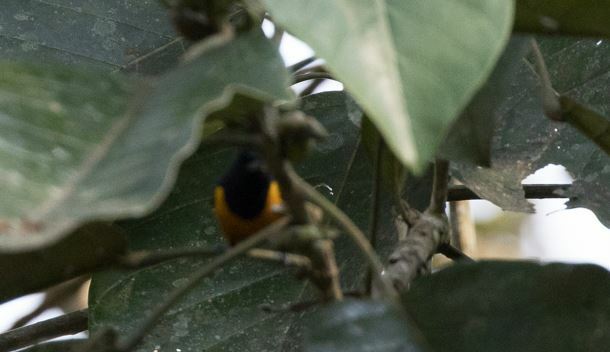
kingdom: Animalia
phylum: Chordata
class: Aves
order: Passeriformes
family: Fringillidae
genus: Euphonia
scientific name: Euphonia rufiventris
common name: Rufous-bellied euphonia
